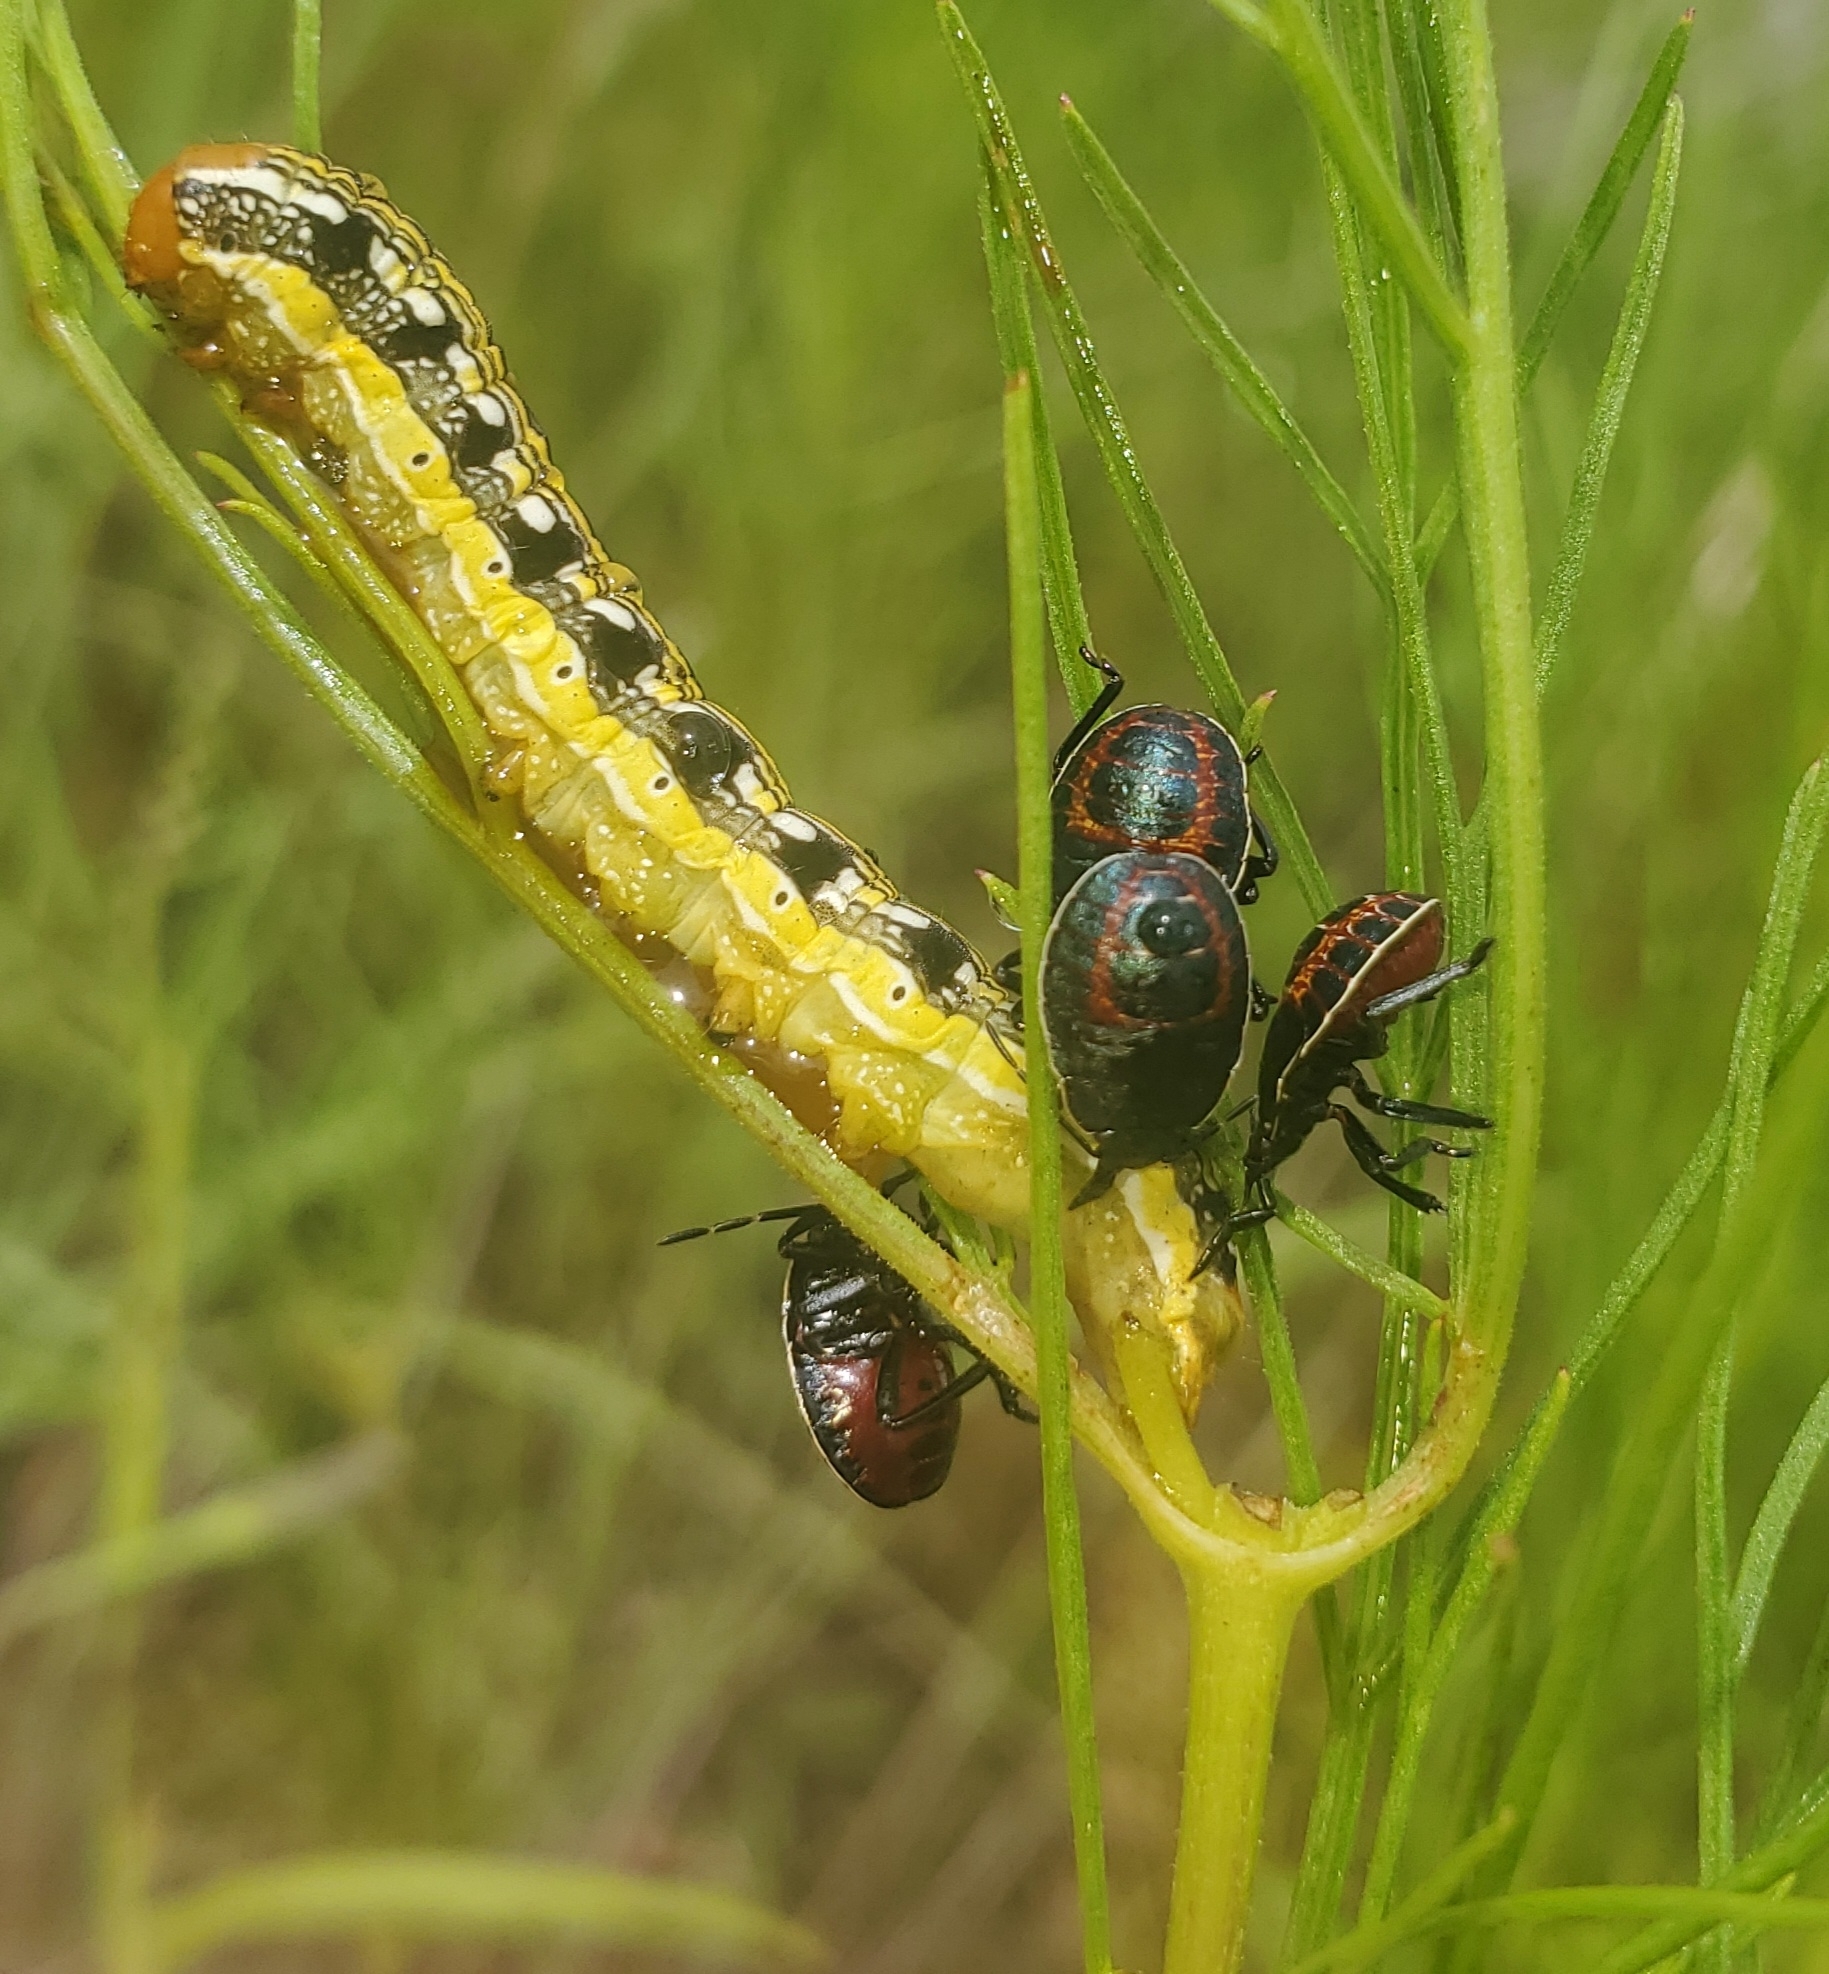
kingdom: Animalia
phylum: Arthropoda
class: Insecta
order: Lepidoptera
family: Noctuidae
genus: Schinia
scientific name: Schinia mexicana
